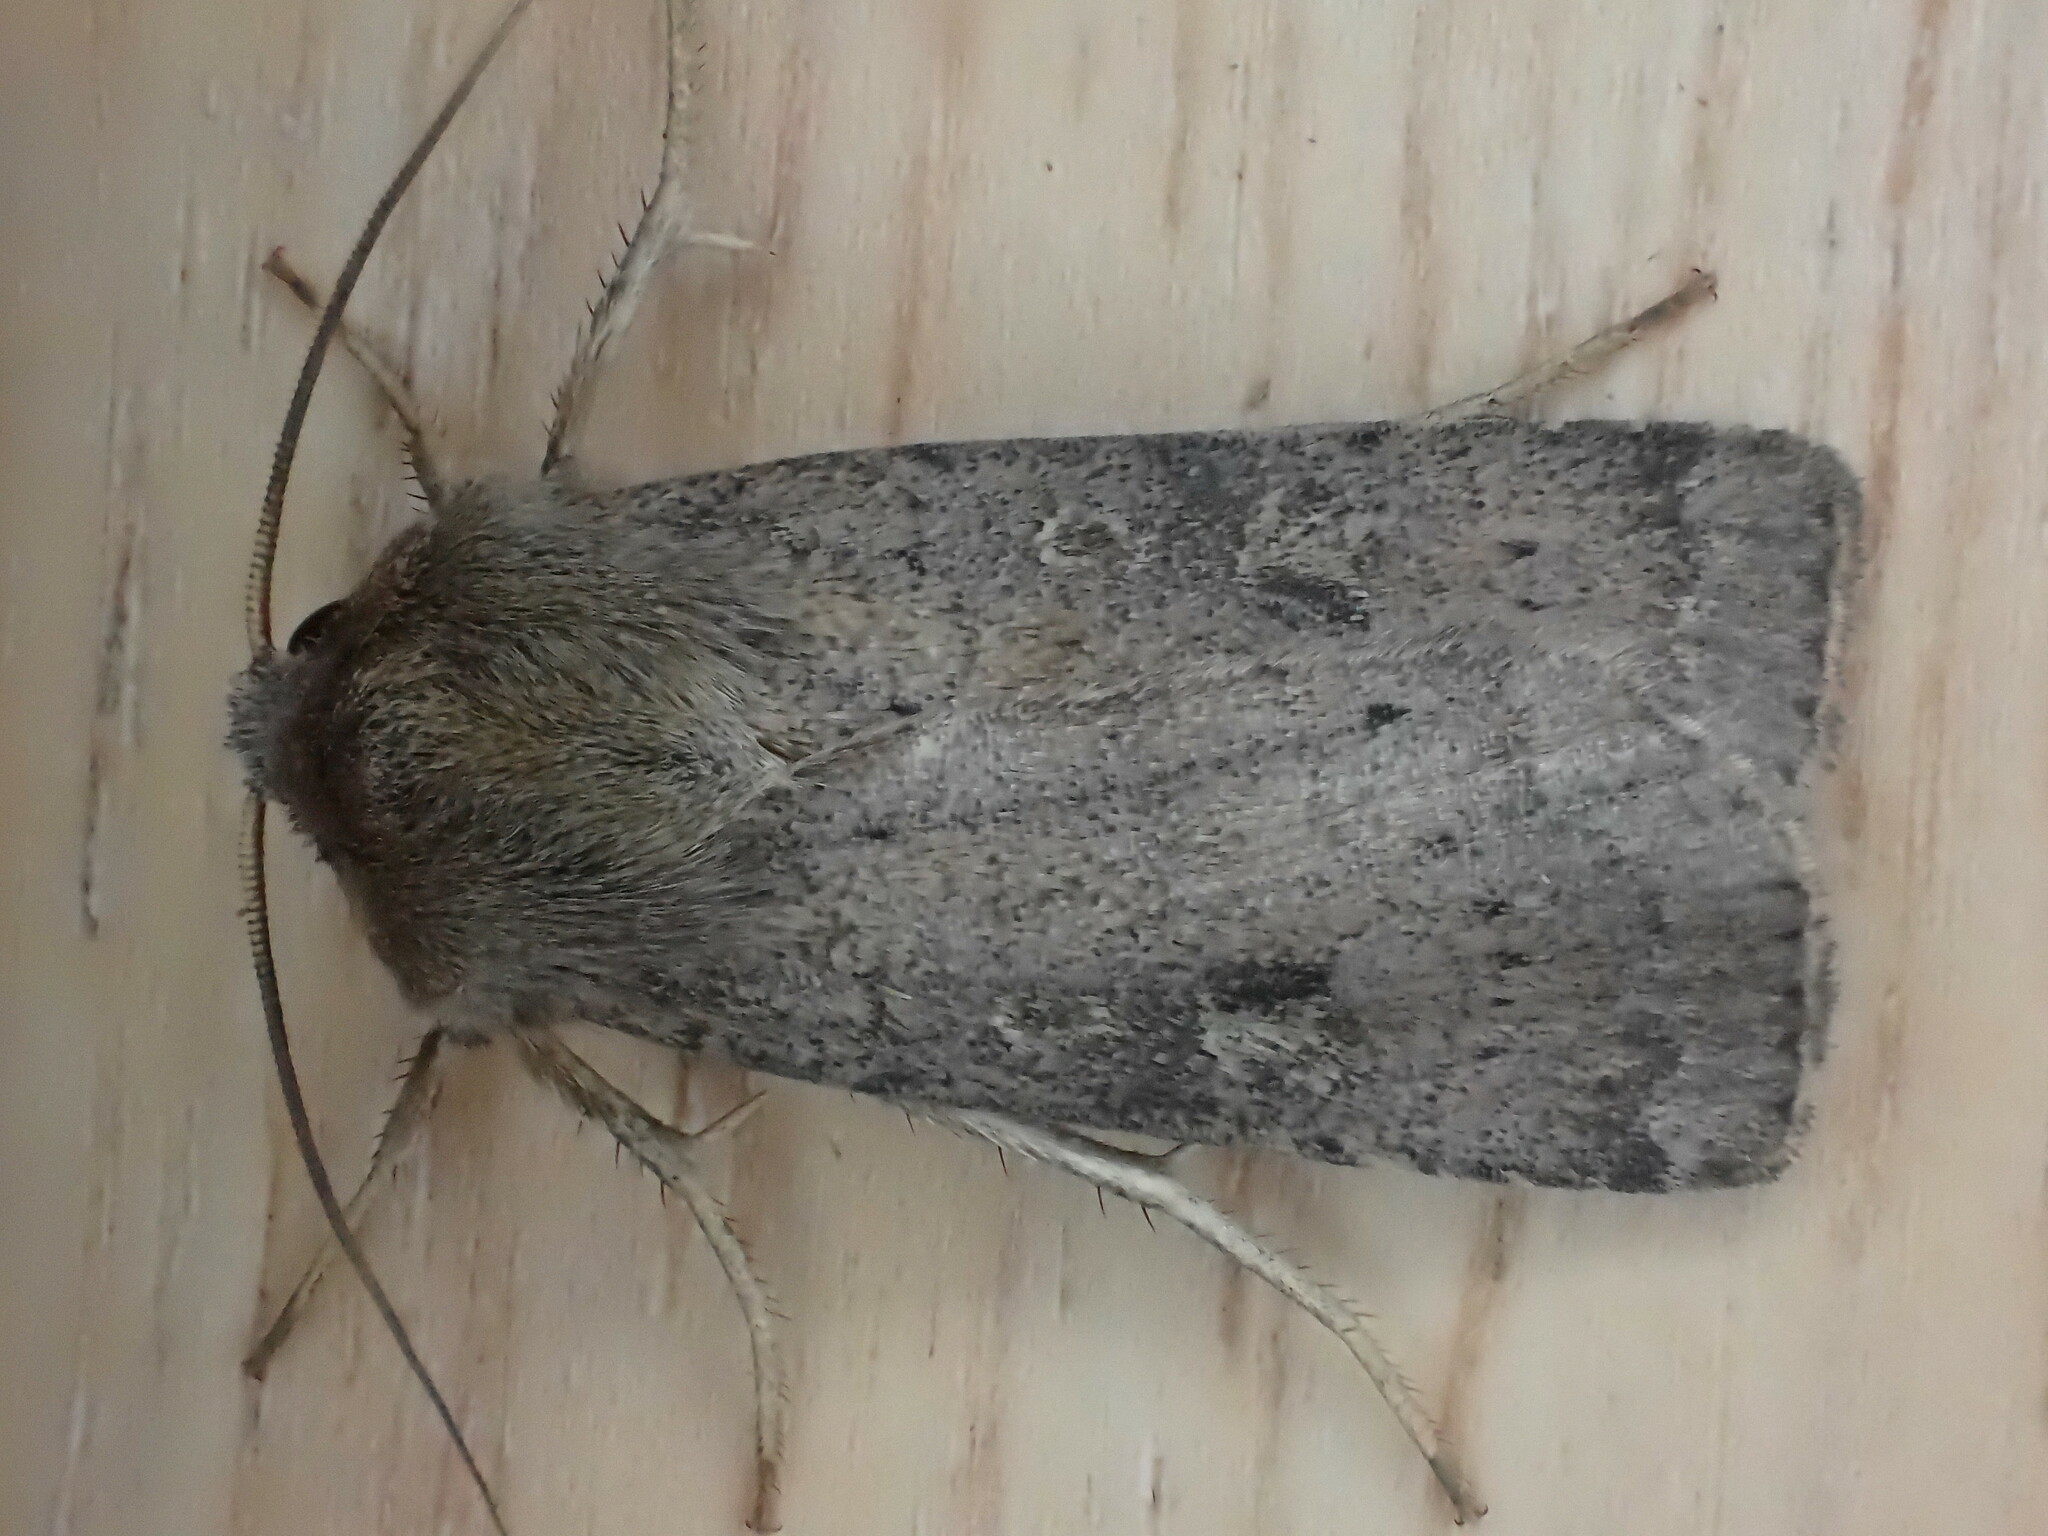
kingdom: Animalia
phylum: Arthropoda
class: Insecta
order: Lepidoptera
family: Noctuidae
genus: Xestia
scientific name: Xestia xanthographa
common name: Square-spot rustic
